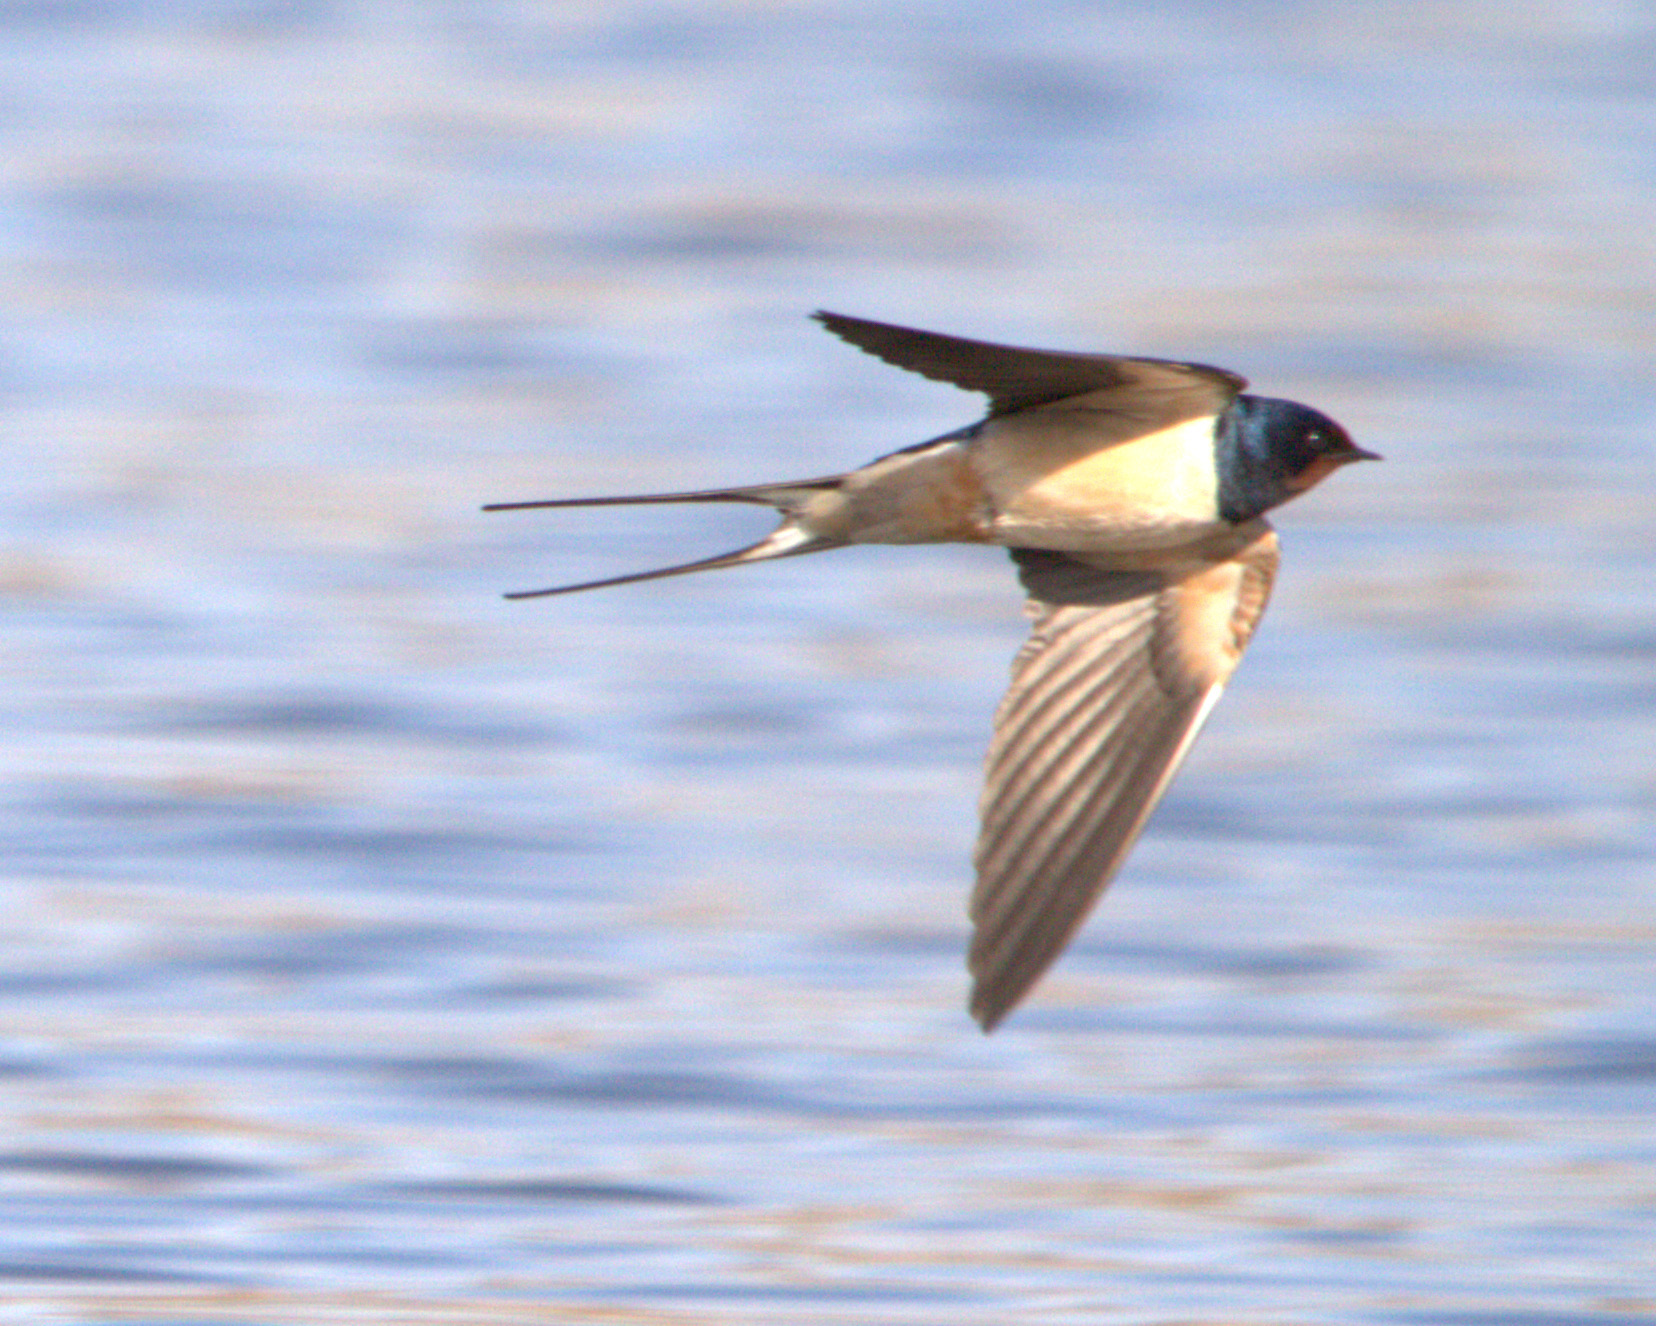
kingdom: Animalia
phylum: Chordata
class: Aves
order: Passeriformes
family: Hirundinidae
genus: Hirundo
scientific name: Hirundo rustica
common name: Barn swallow
